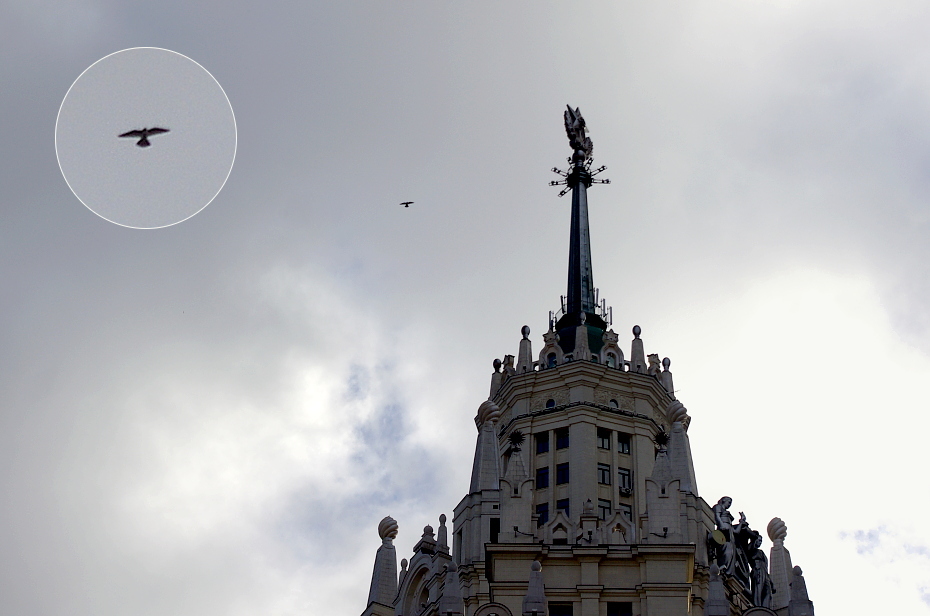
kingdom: Animalia
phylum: Chordata
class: Aves
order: Falconiformes
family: Falconidae
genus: Falco
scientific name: Falco peregrinus
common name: Peregrine falcon
